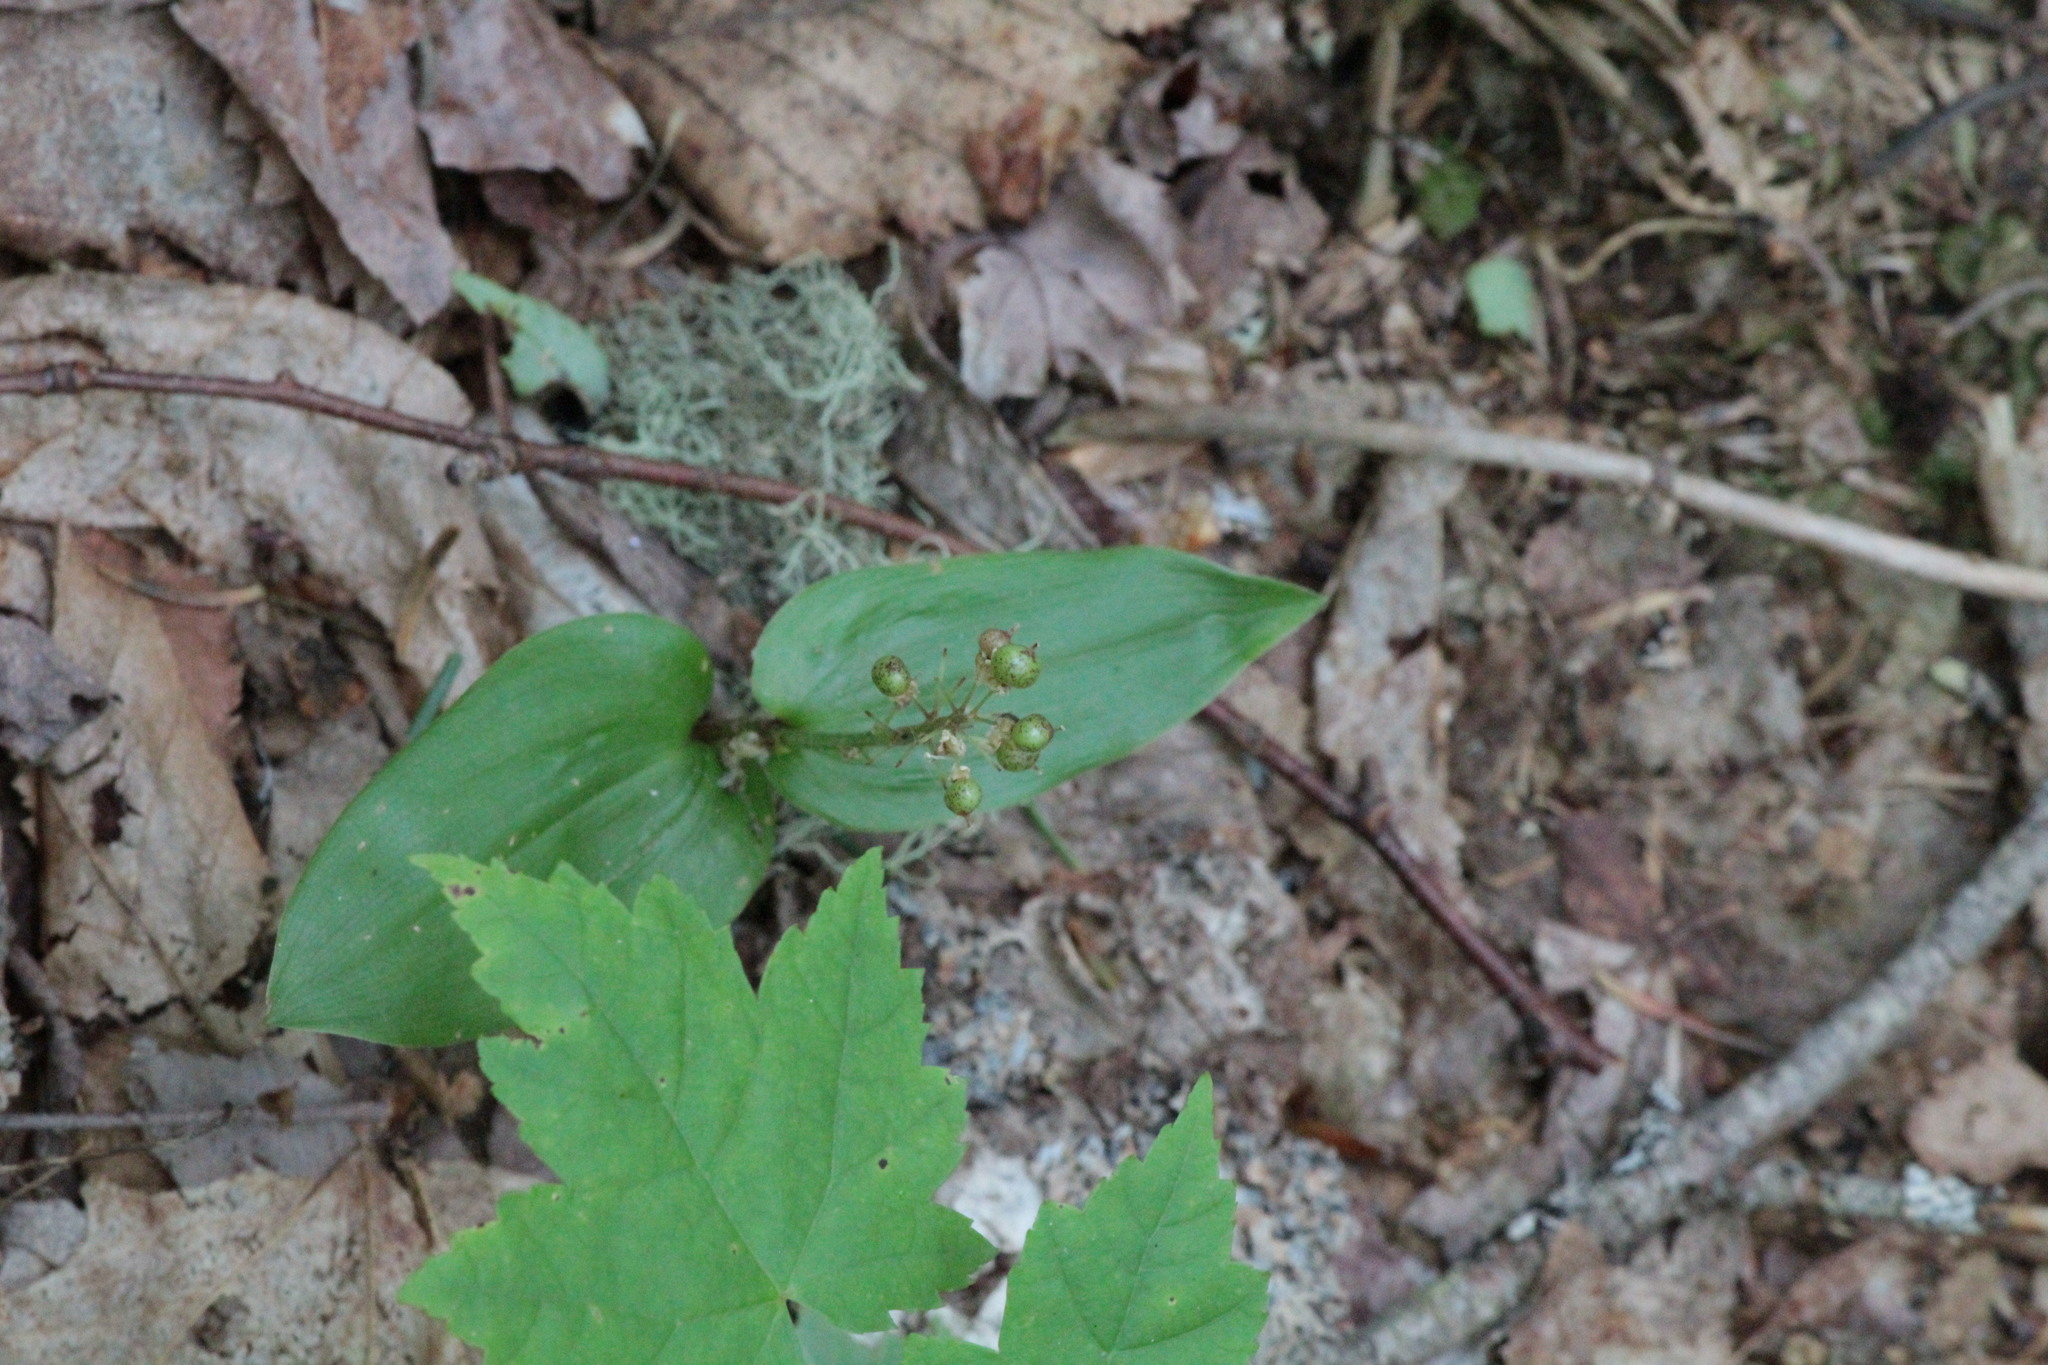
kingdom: Plantae
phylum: Tracheophyta
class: Liliopsida
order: Asparagales
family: Asparagaceae
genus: Maianthemum
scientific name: Maianthemum canadense
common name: False lily-of-the-valley
